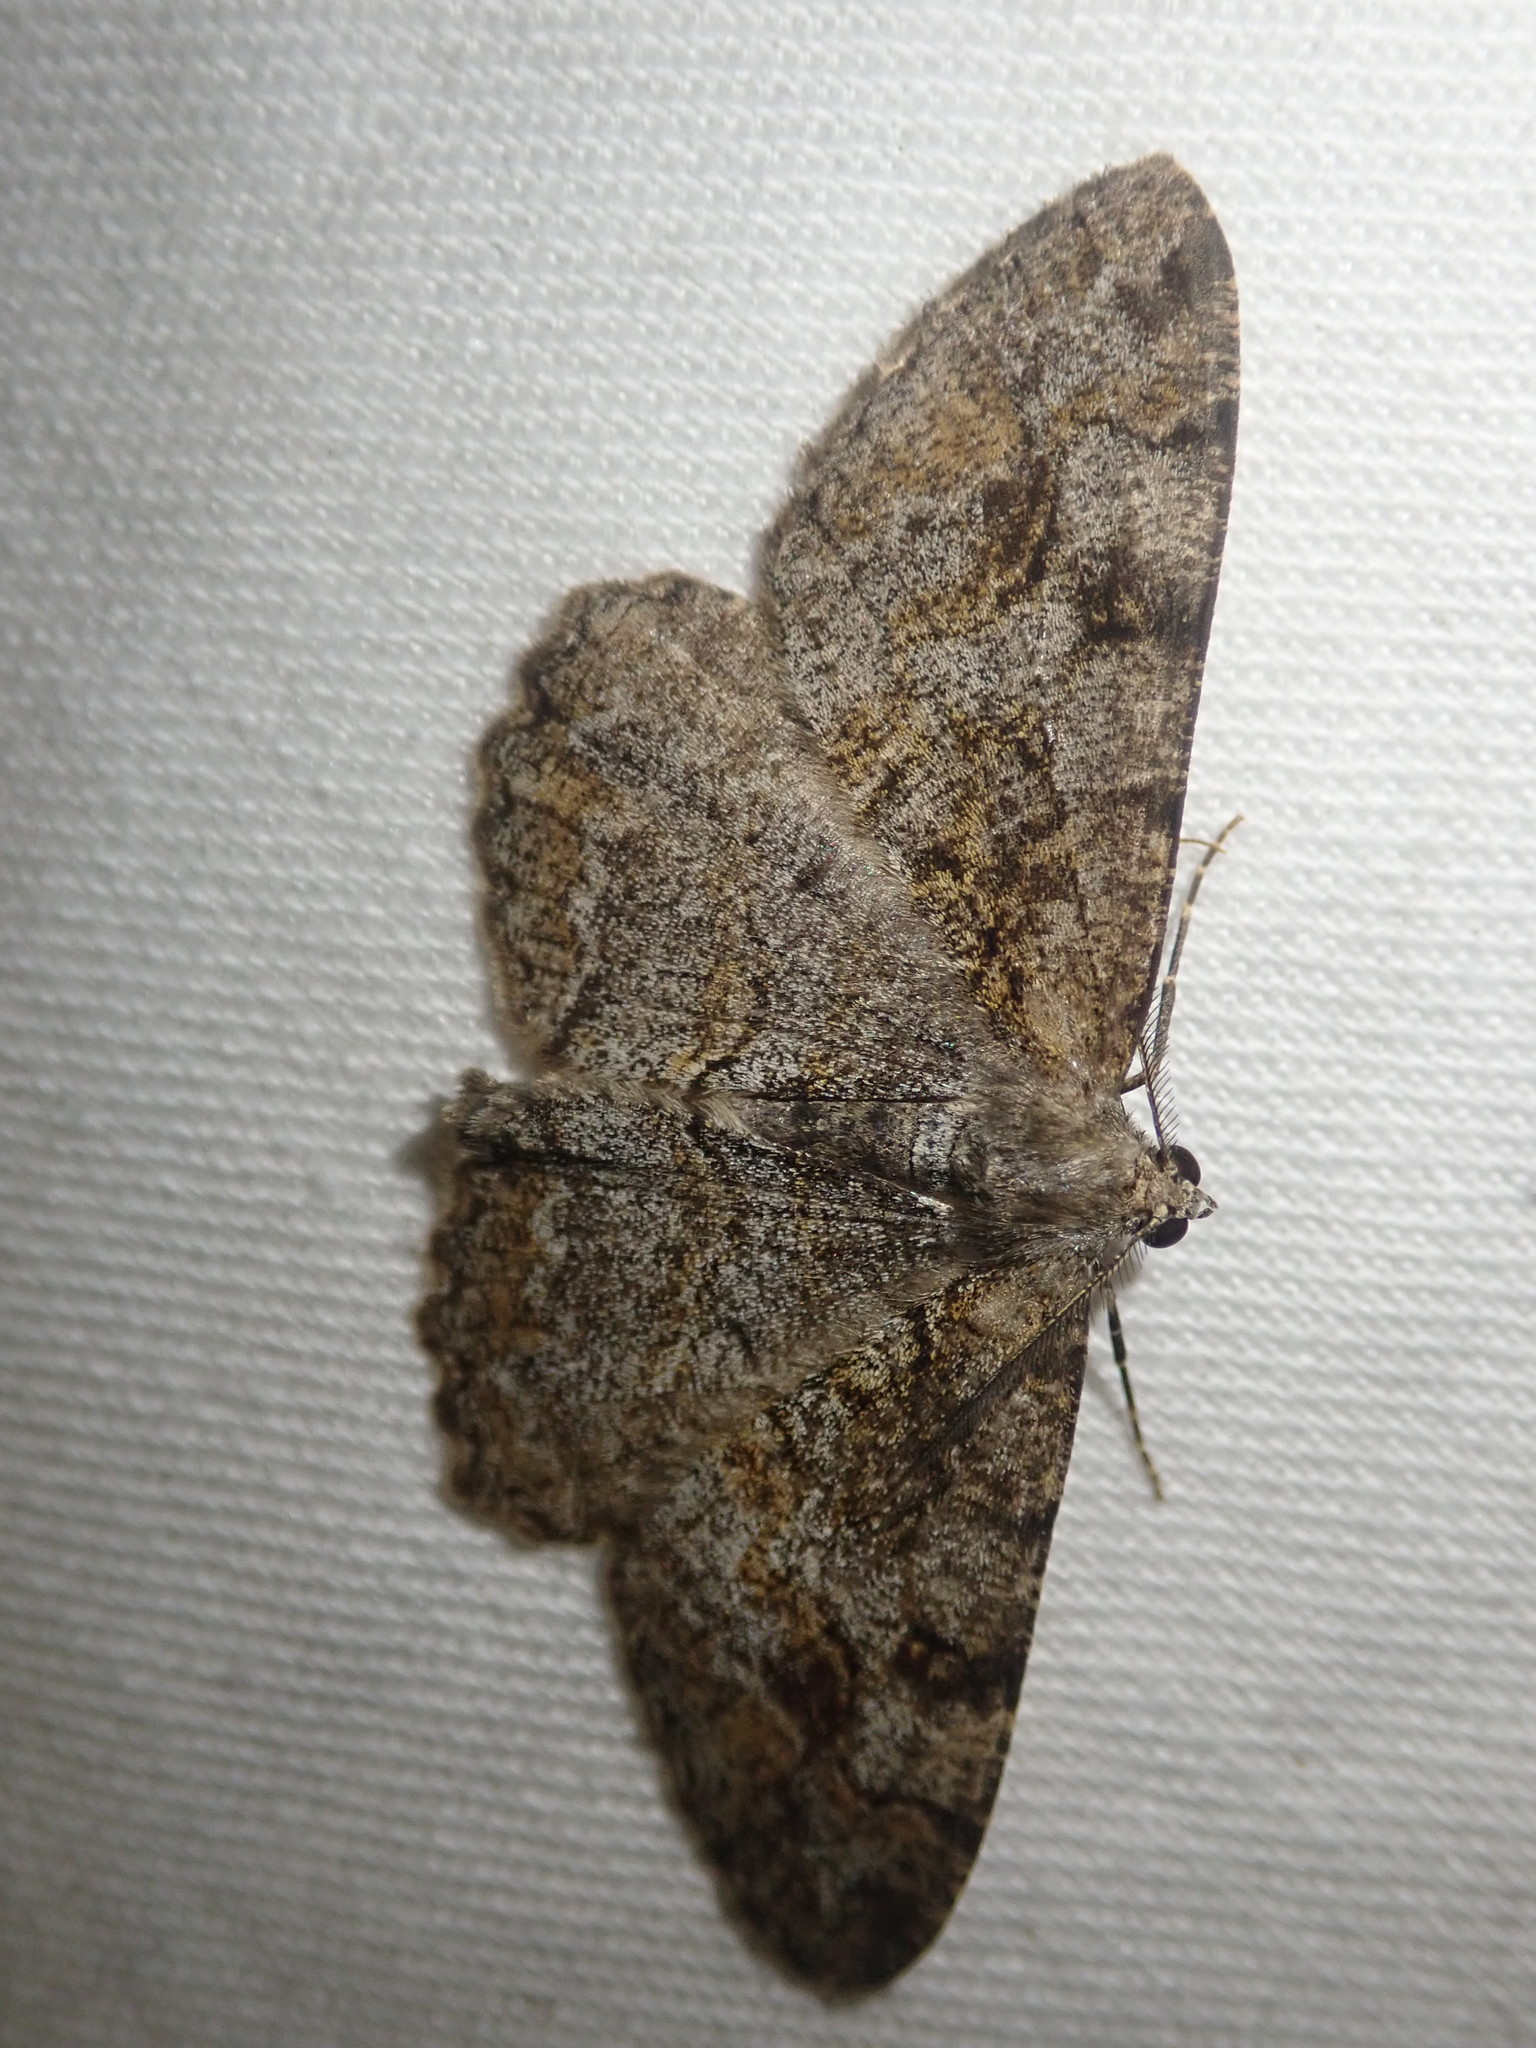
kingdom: Animalia
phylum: Arthropoda
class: Insecta
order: Lepidoptera
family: Geometridae
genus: Alcis
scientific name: Alcis repandata
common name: Mottled beauty
